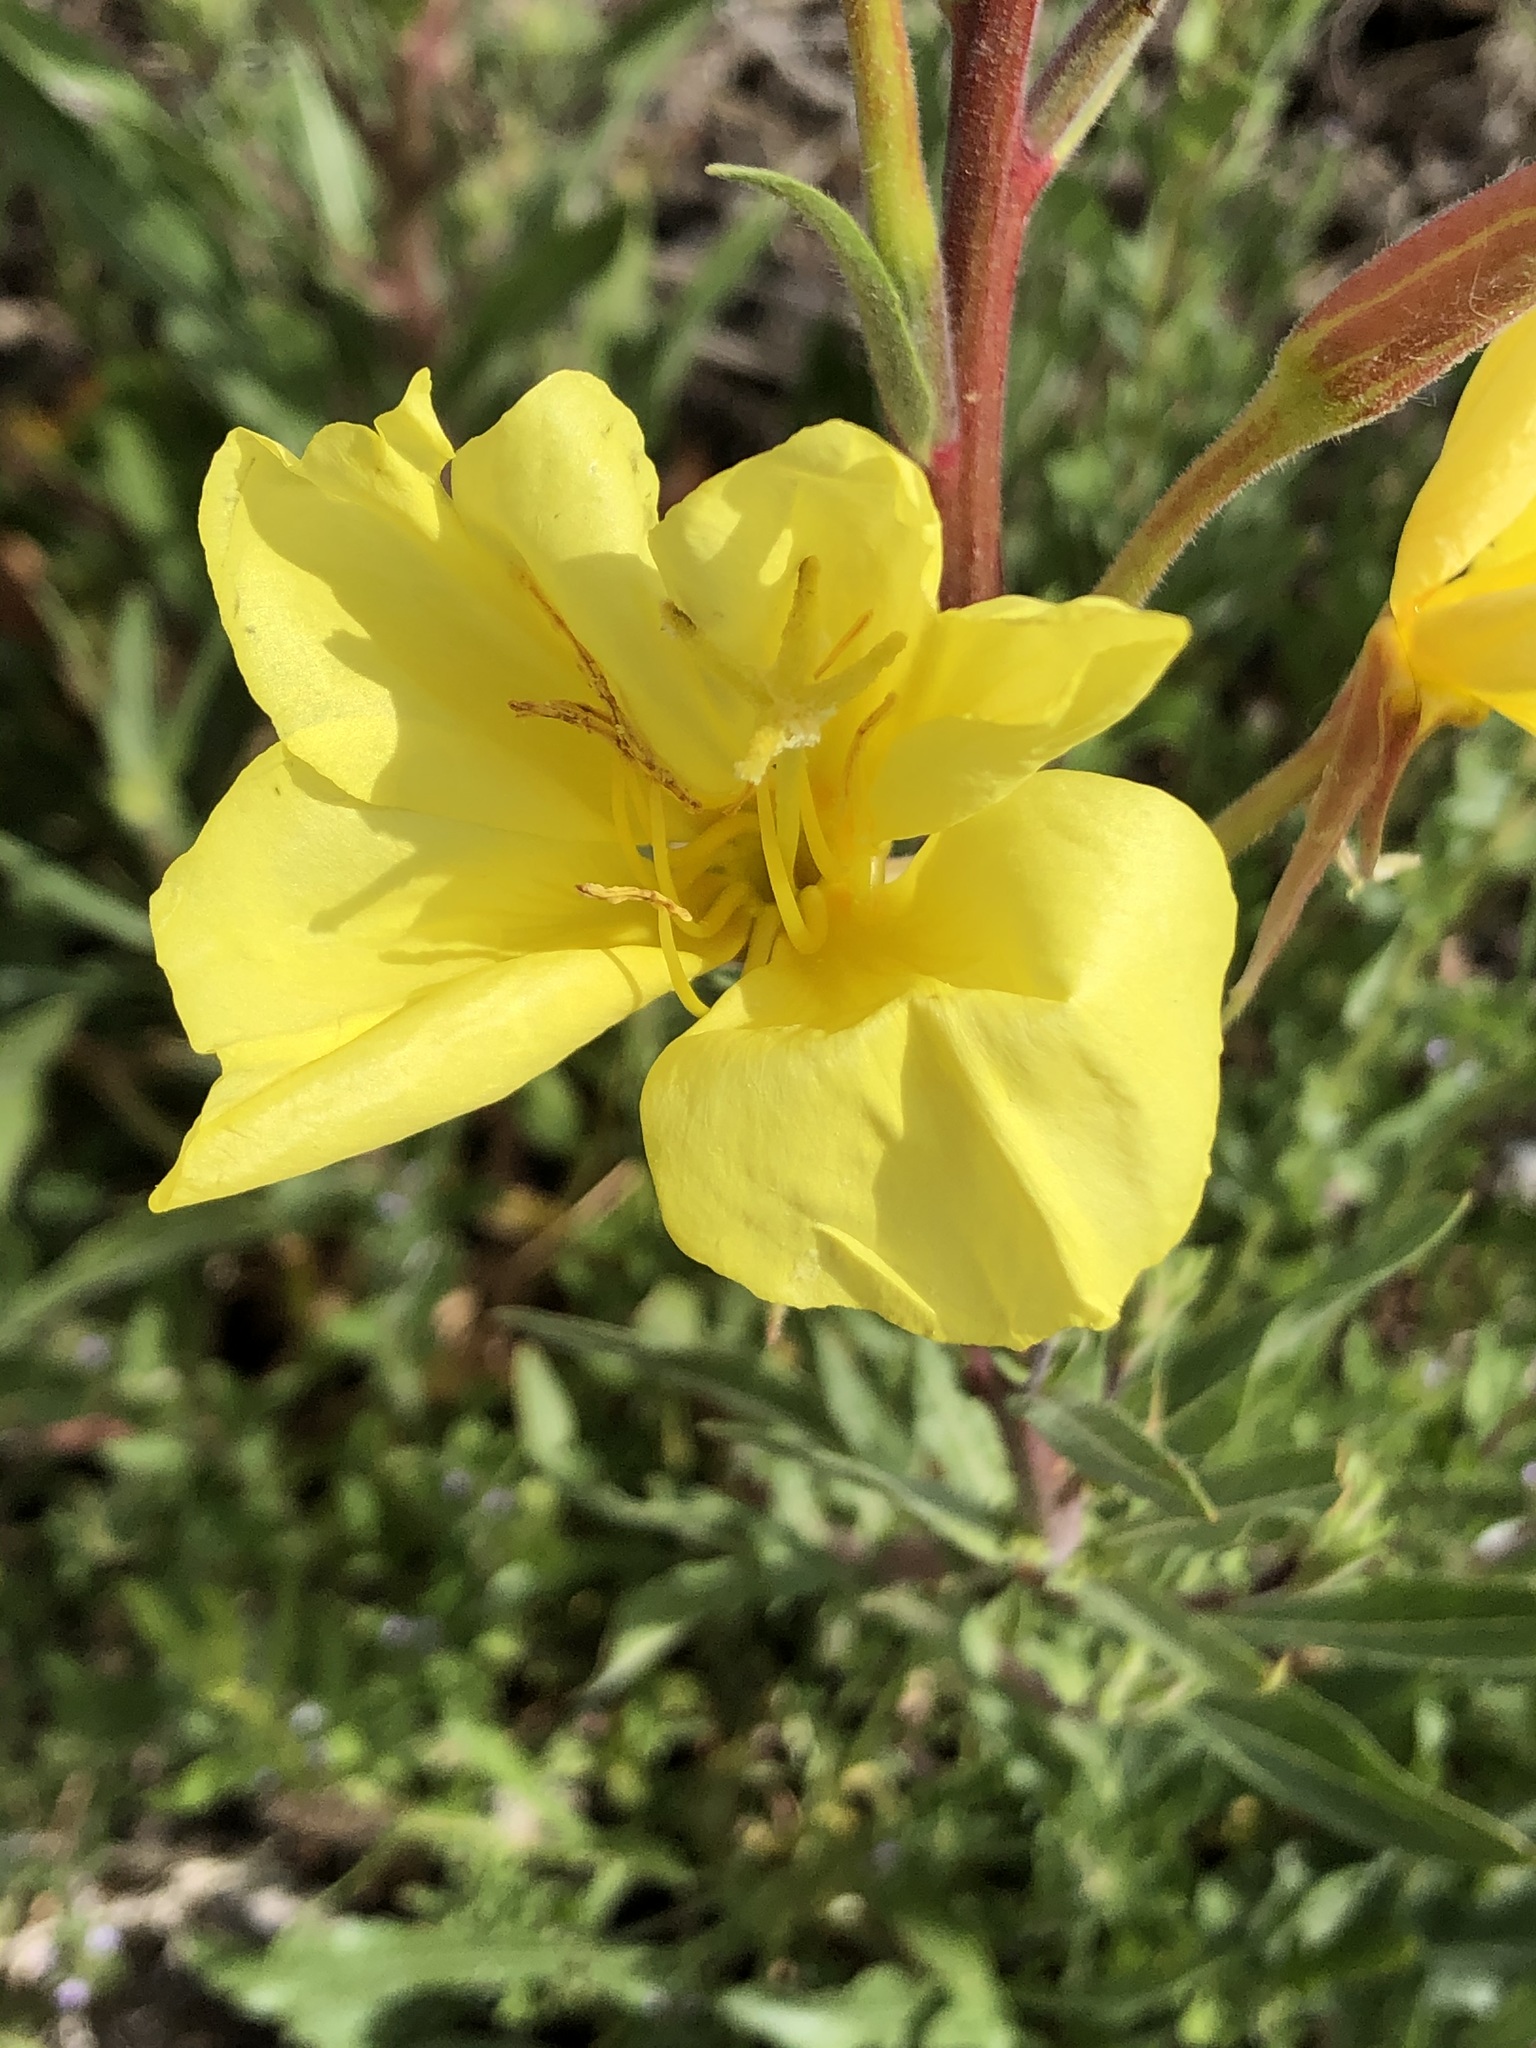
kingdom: Plantae
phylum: Tracheophyta
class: Magnoliopsida
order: Fabales
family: Fabaceae
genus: Melilotus
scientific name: Melilotus officinalis
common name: Sweetclover
